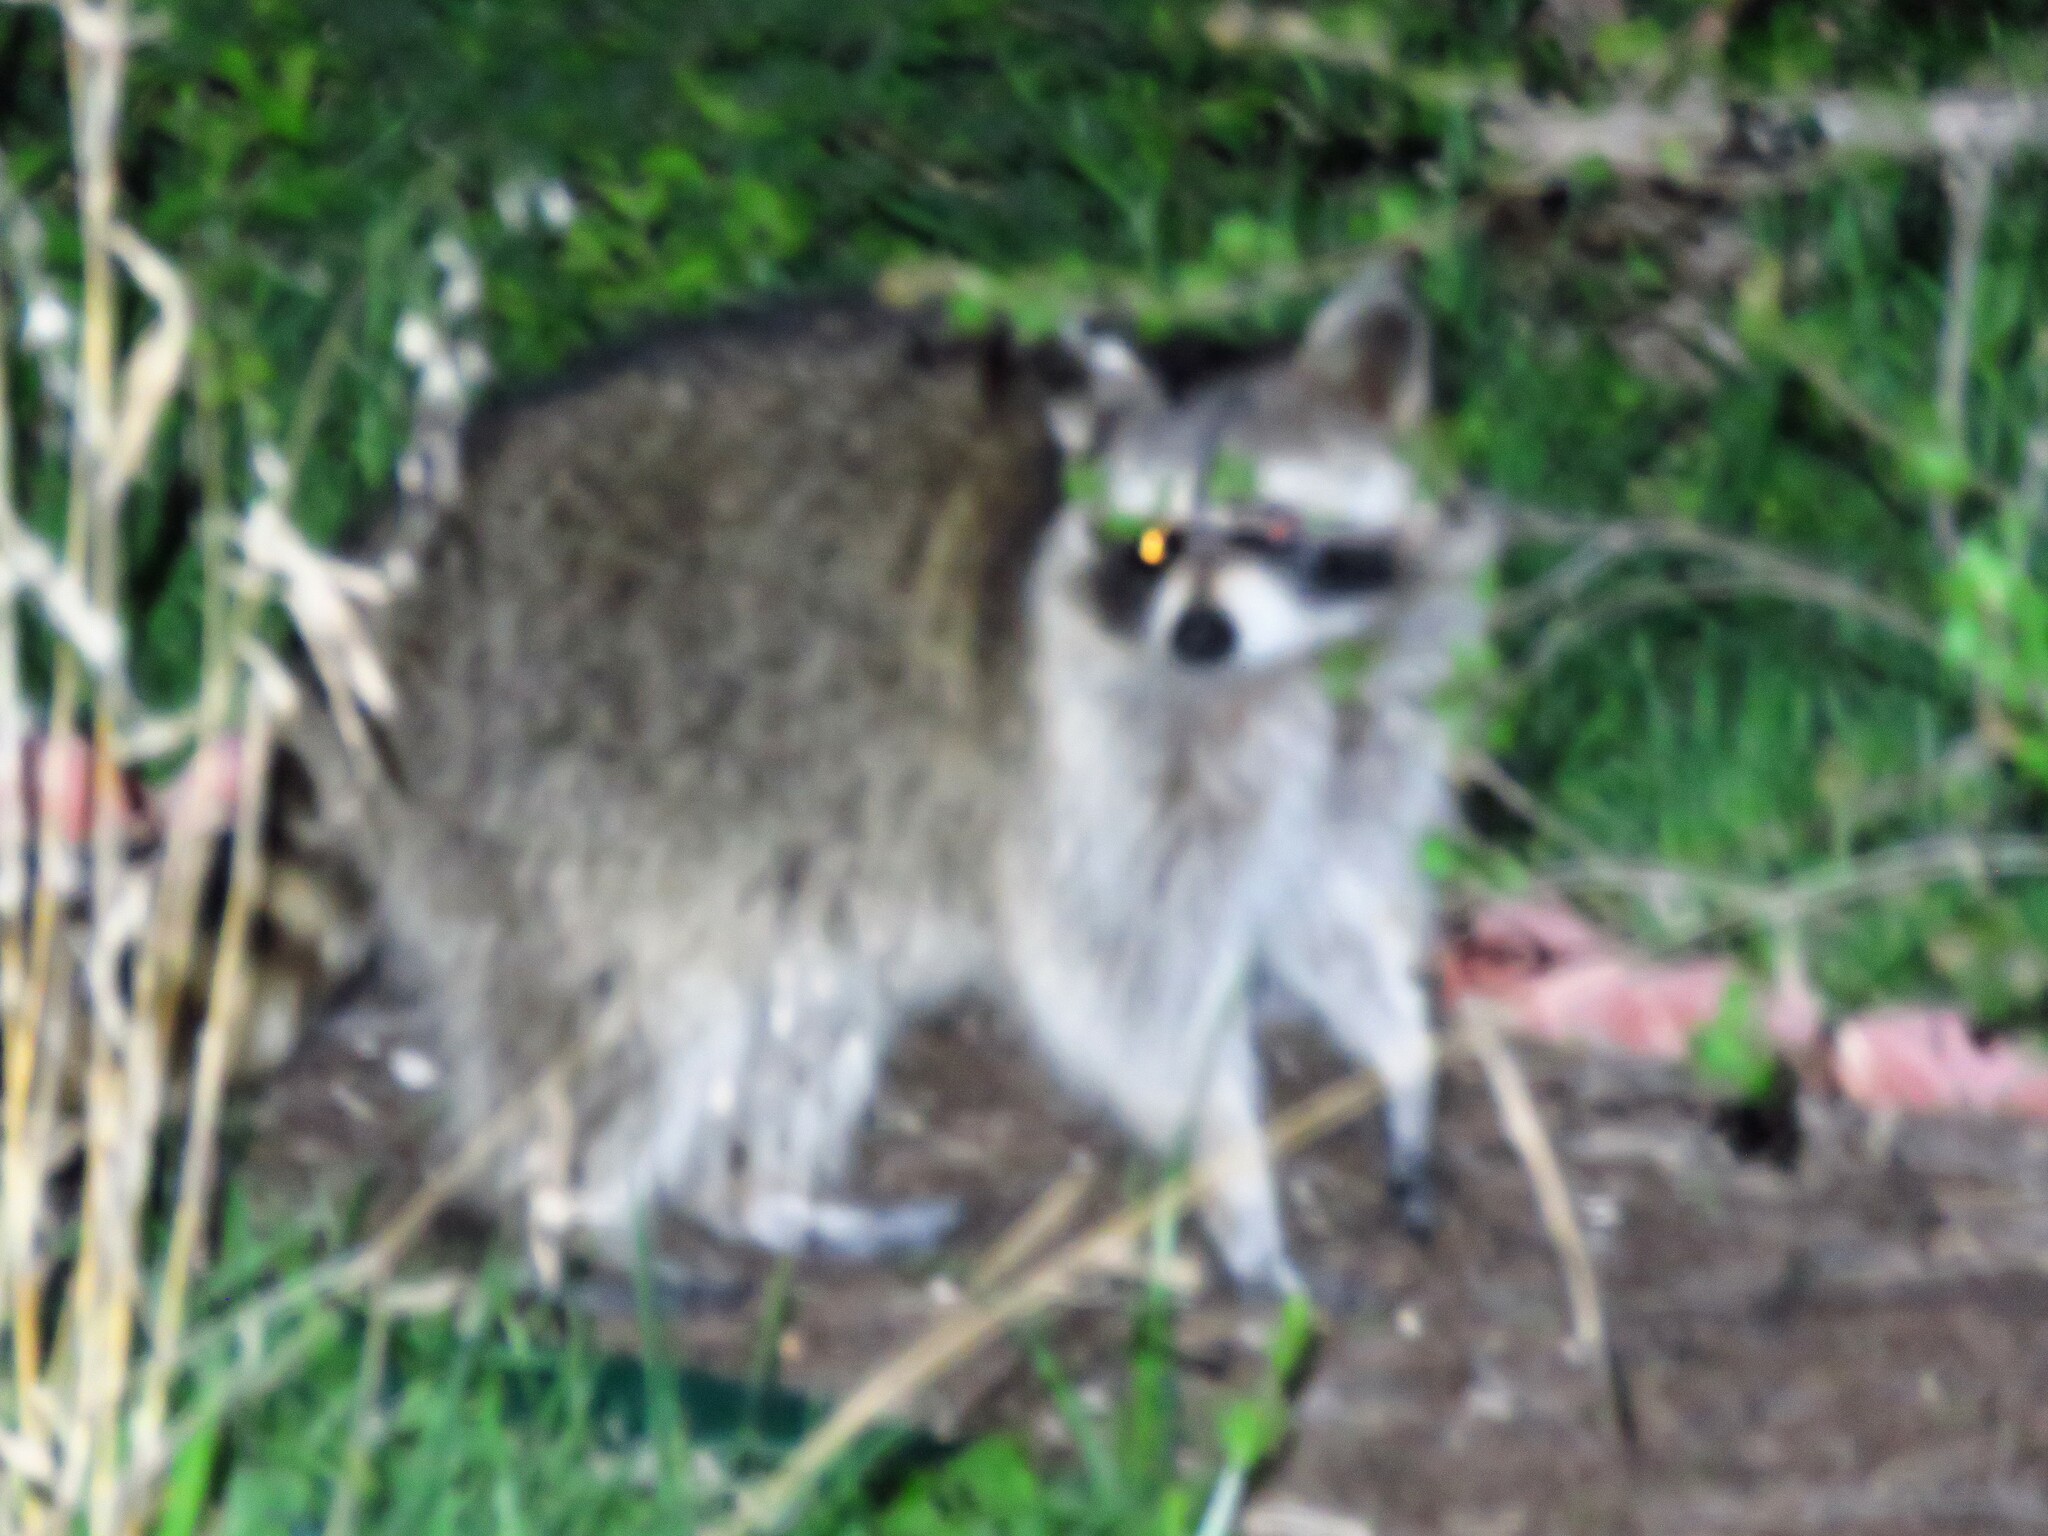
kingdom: Animalia
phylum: Chordata
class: Mammalia
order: Carnivora
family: Procyonidae
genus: Procyon
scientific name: Procyon lotor
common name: Raccoon
